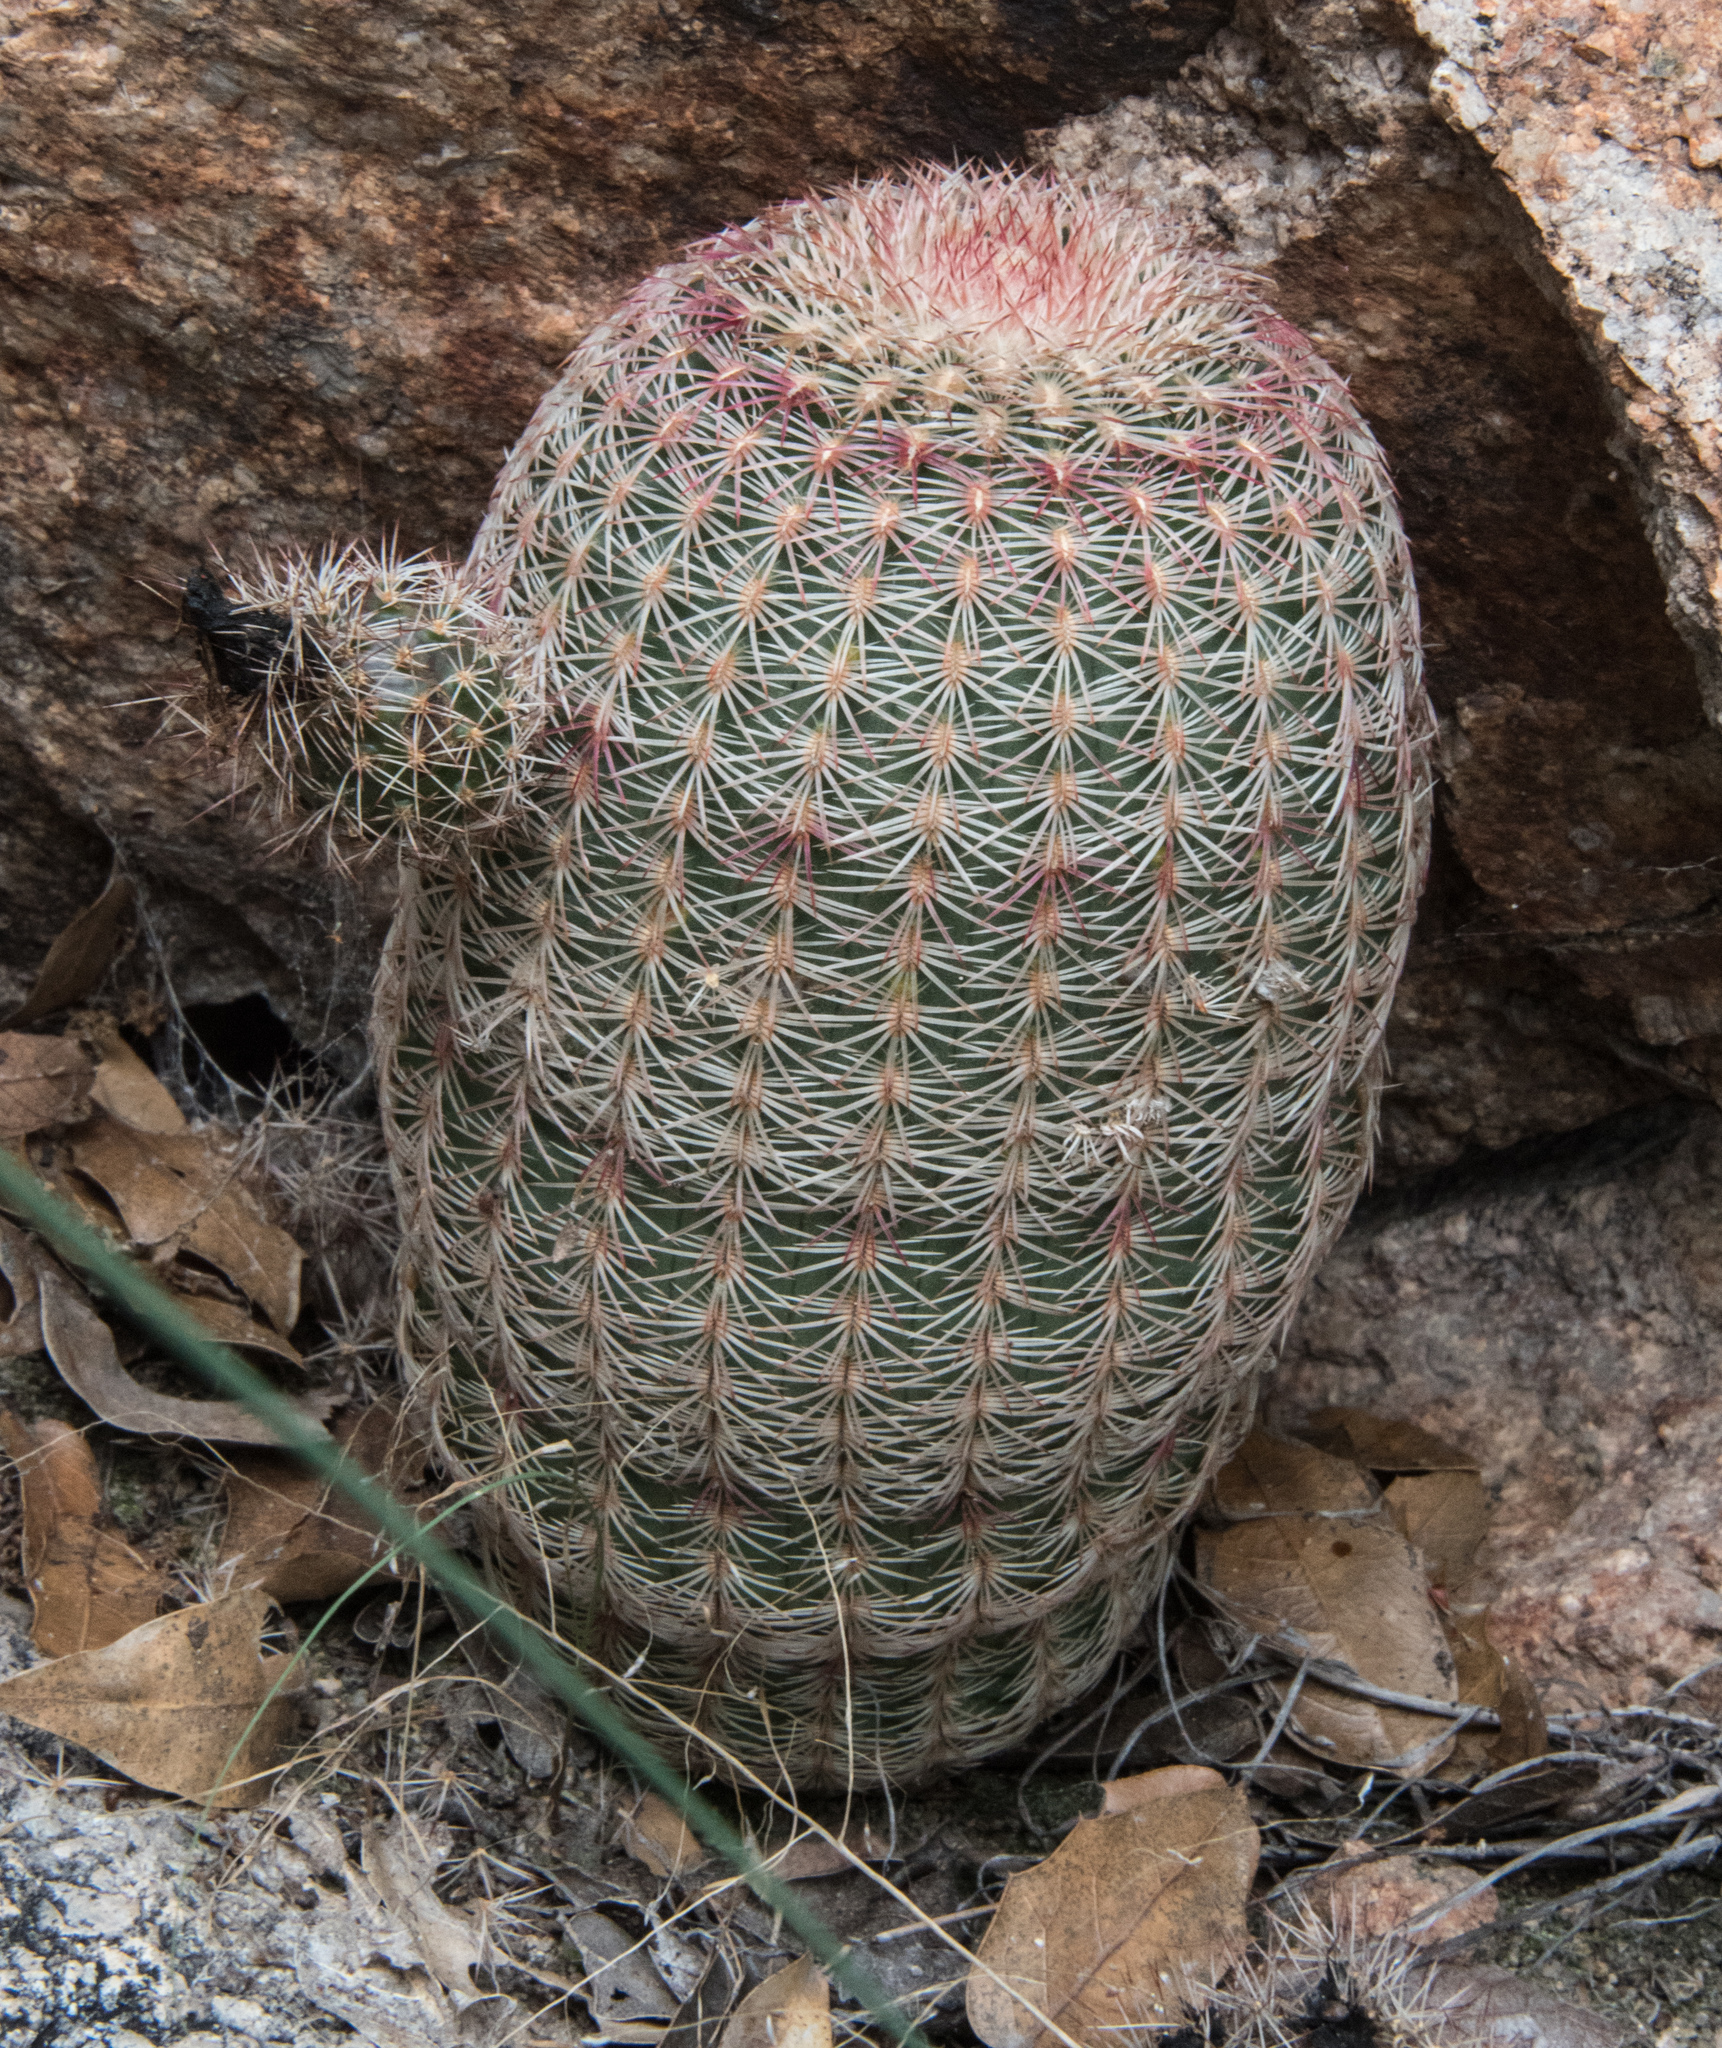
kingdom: Plantae
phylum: Tracheophyta
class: Magnoliopsida
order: Caryophyllales
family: Cactaceae
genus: Echinocereus
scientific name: Echinocereus rigidissimus
